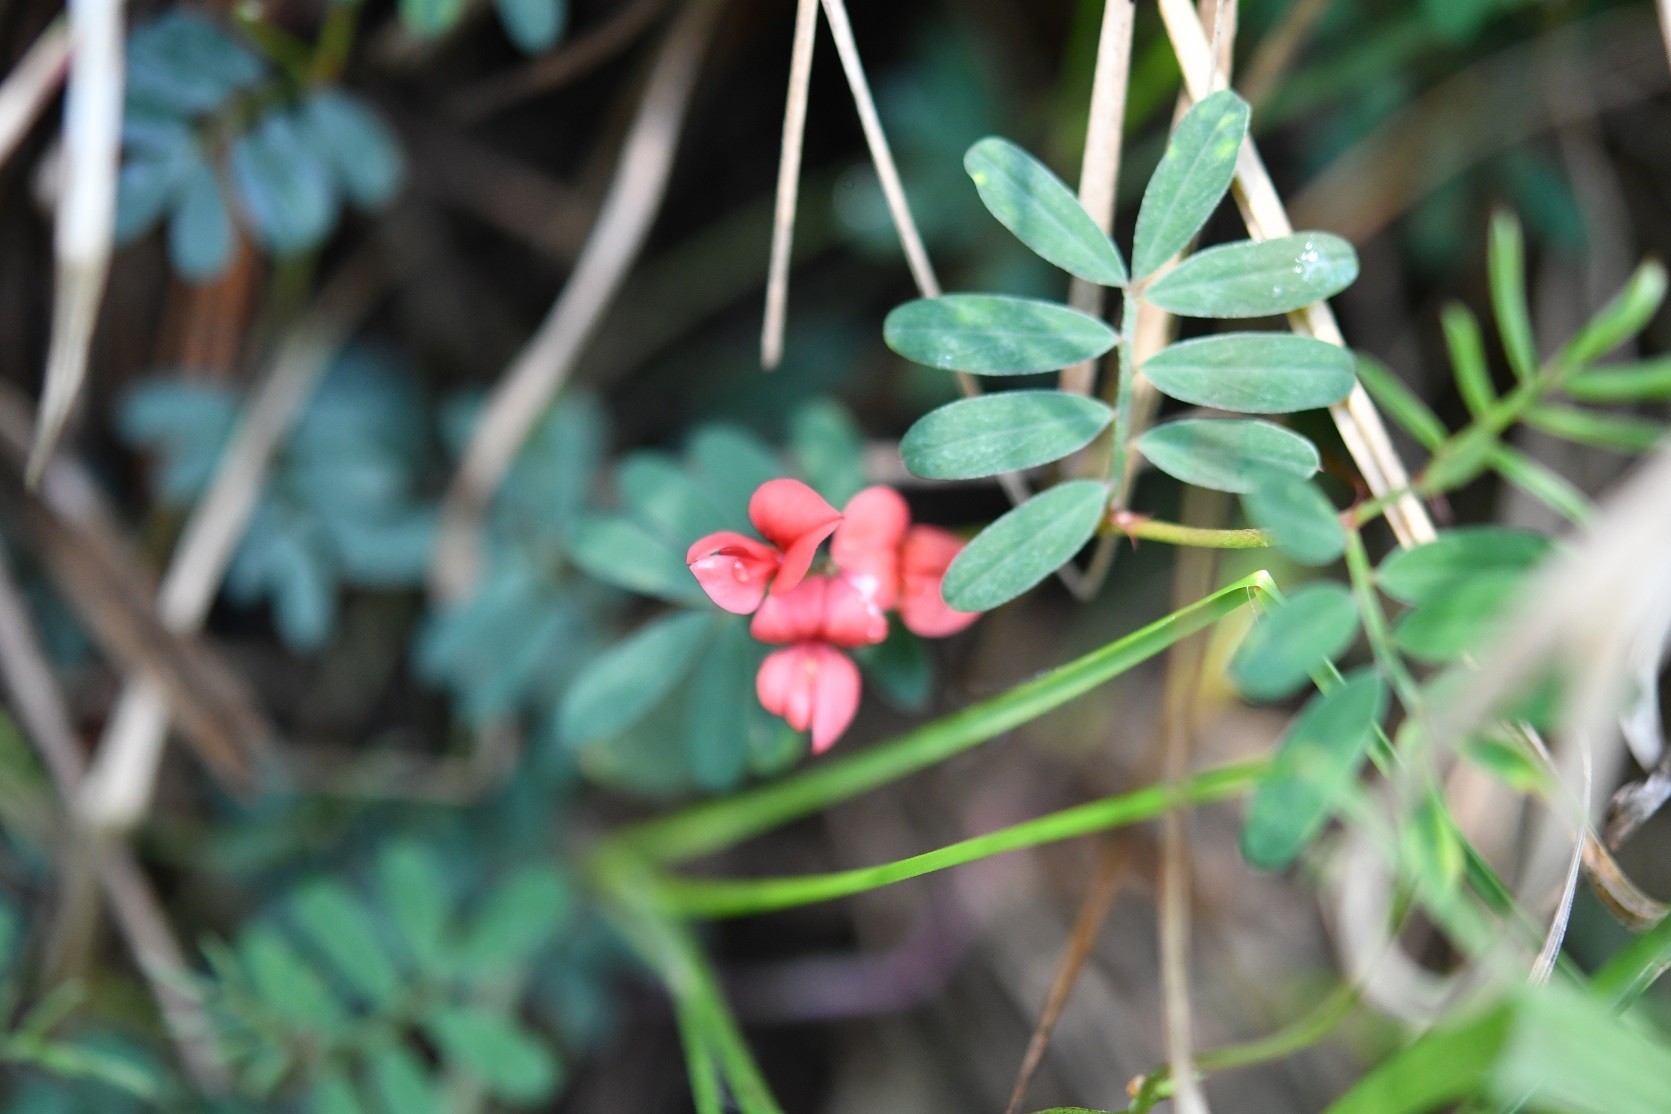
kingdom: Plantae
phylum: Tracheophyta
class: Magnoliopsida
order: Fabales
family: Fabaceae
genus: Indigofera
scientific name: Indigofera miniata
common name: Coast indigo
